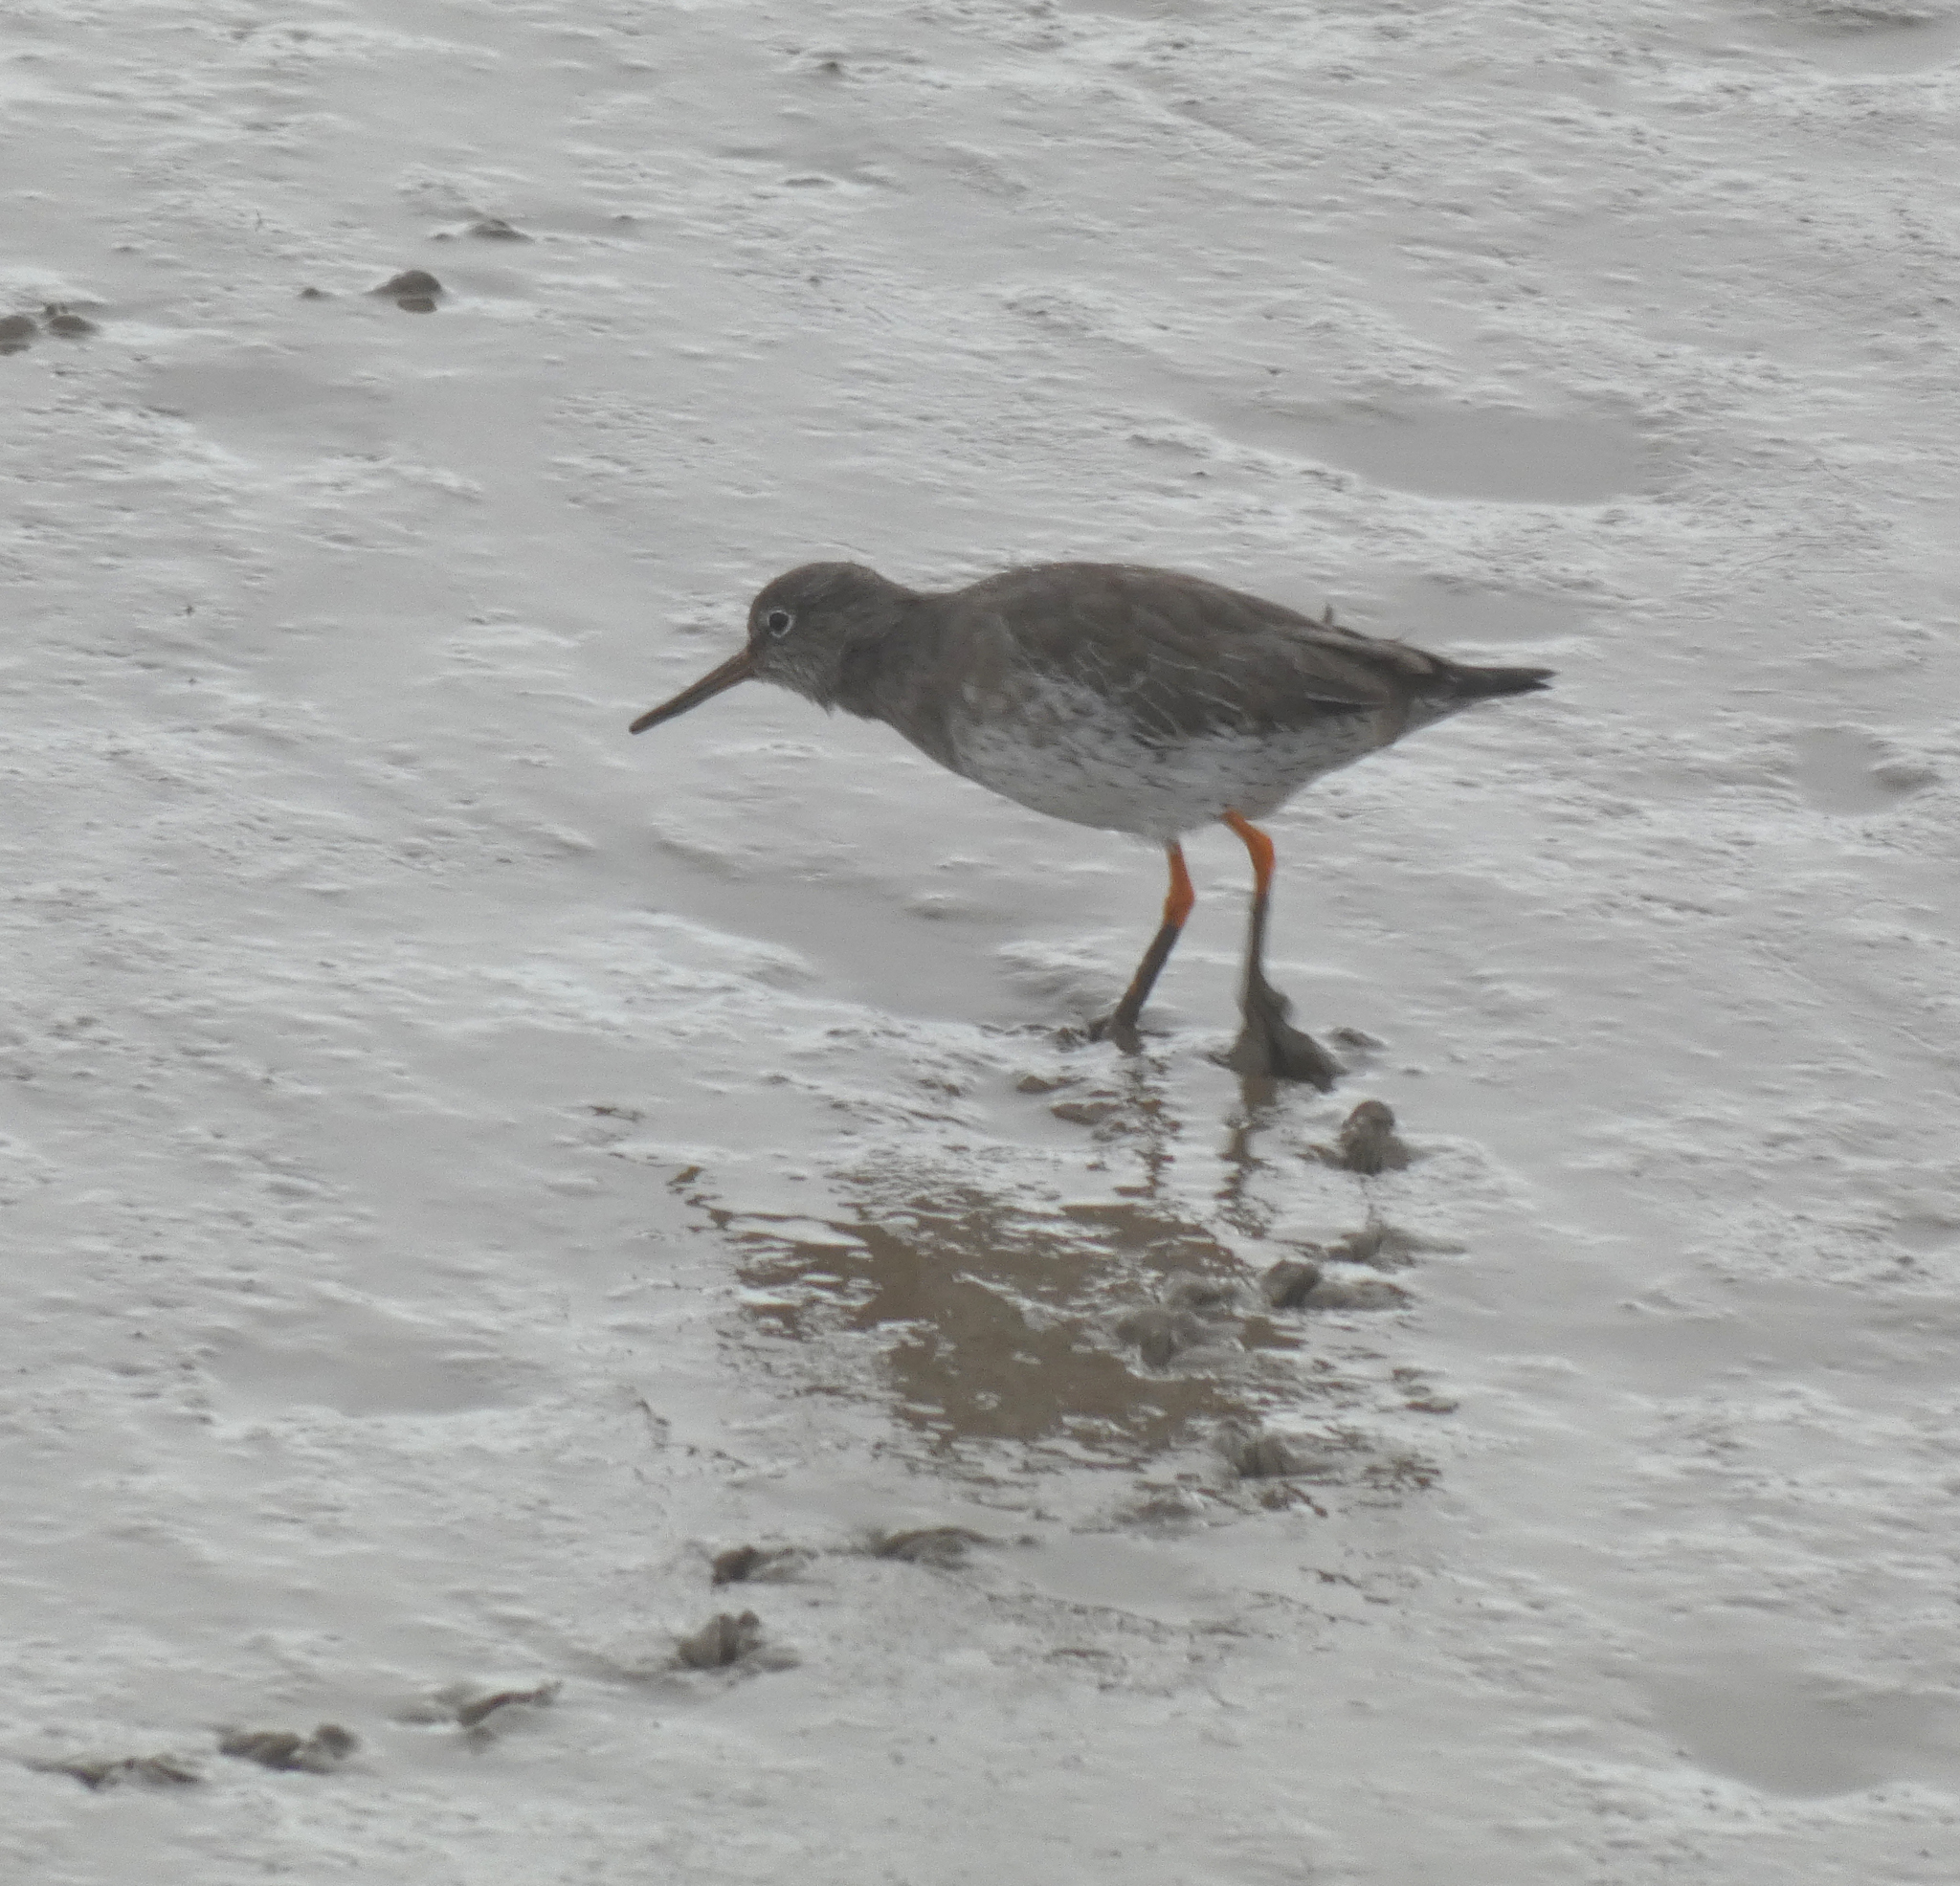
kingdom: Animalia
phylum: Chordata
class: Aves
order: Charadriiformes
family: Scolopacidae
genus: Tringa
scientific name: Tringa totanus
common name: Common redshank
